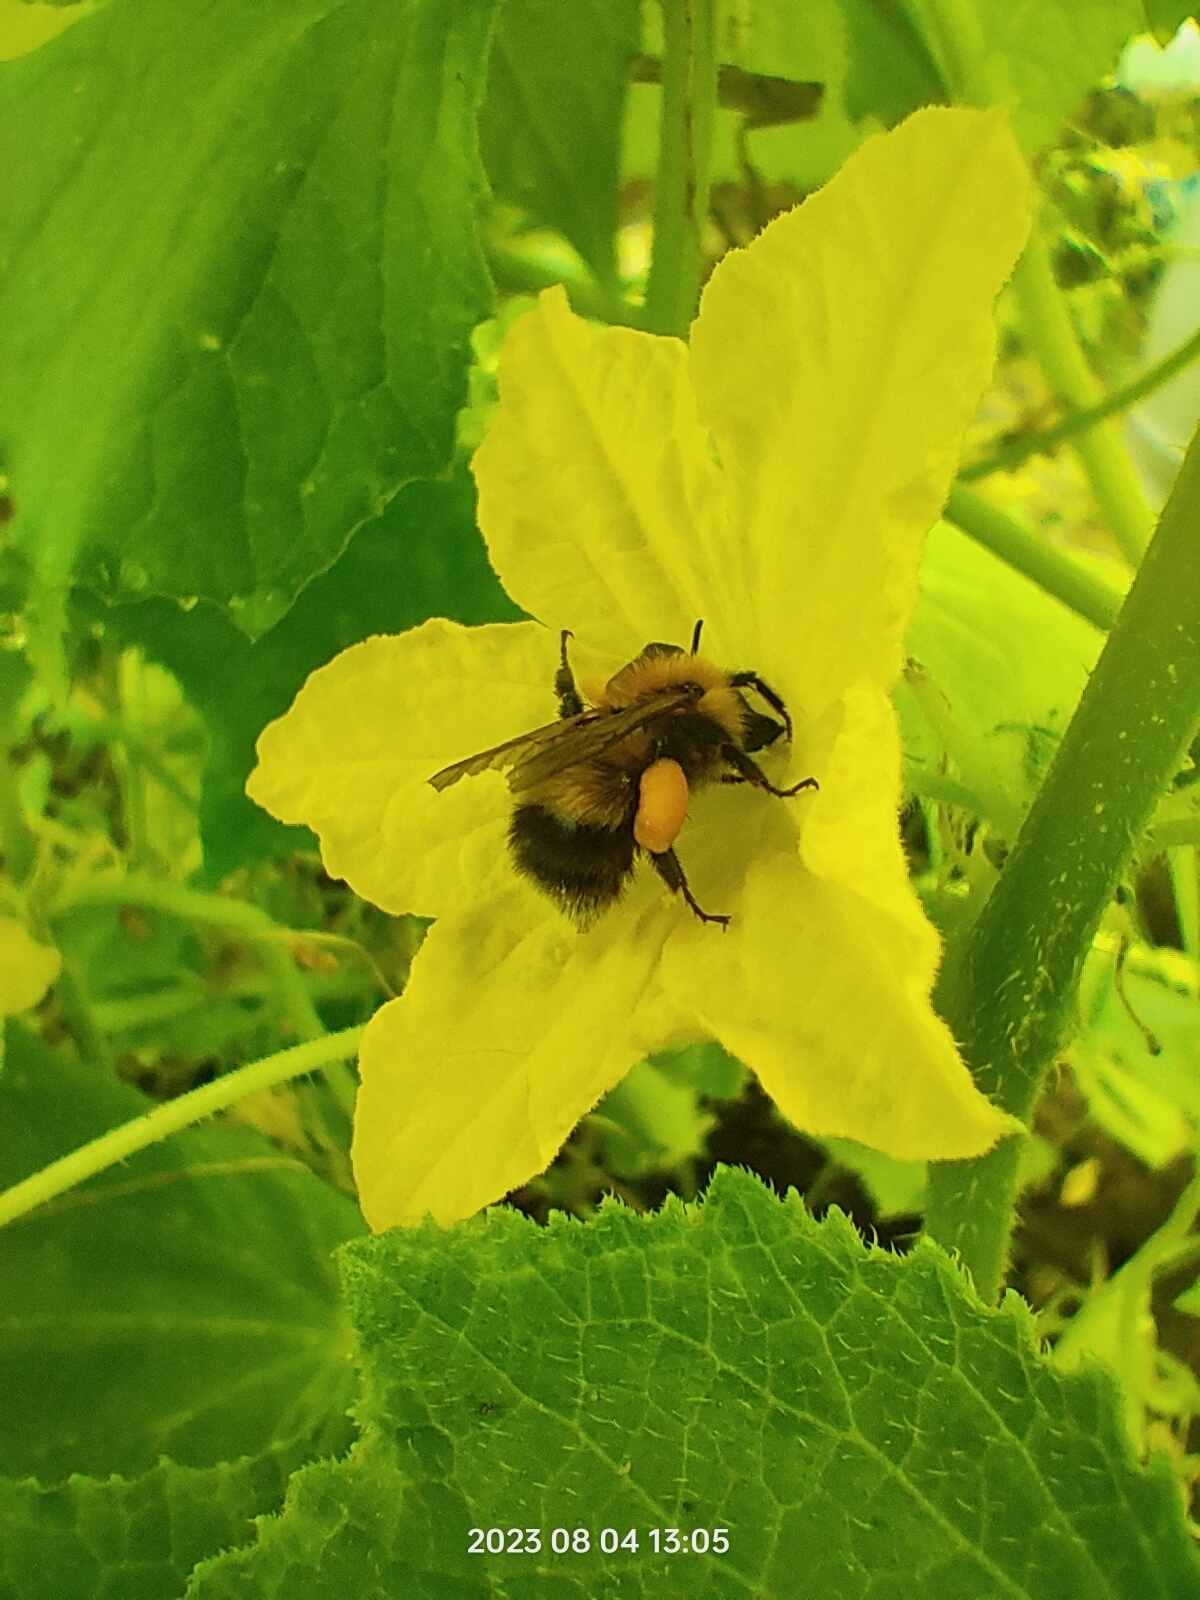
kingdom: Animalia
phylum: Arthropoda
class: Insecta
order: Hymenoptera
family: Apidae
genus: Bombus
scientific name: Bombus hypnorum
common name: New garden bumblebee
